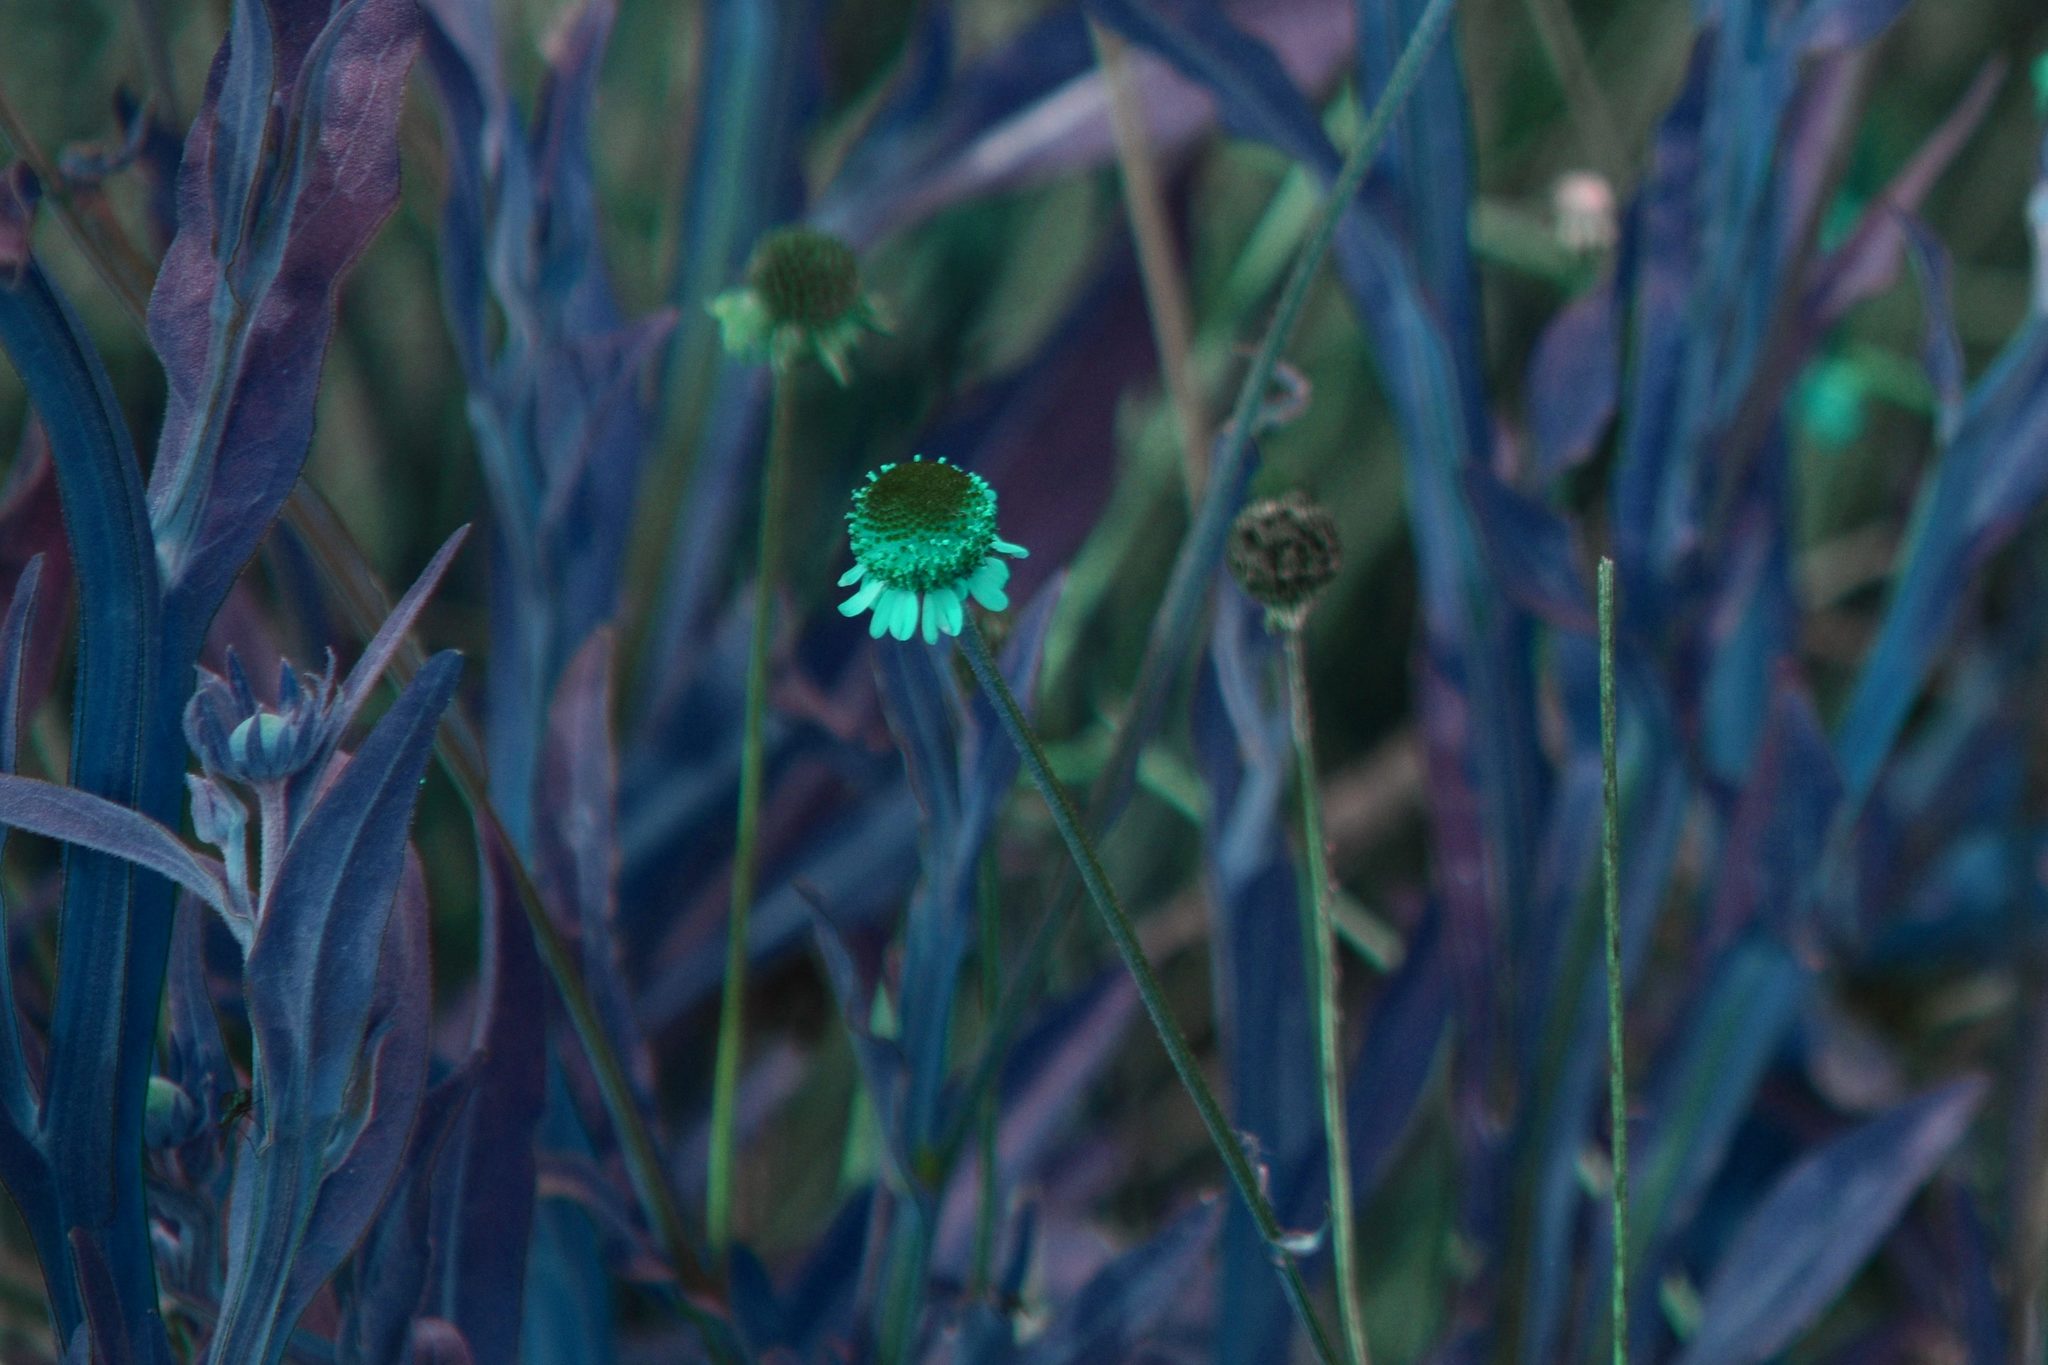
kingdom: Plantae
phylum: Tracheophyta
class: Magnoliopsida
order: Asterales
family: Asteraceae
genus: Helenium
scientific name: Helenium puberulum
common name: Sneezewort
